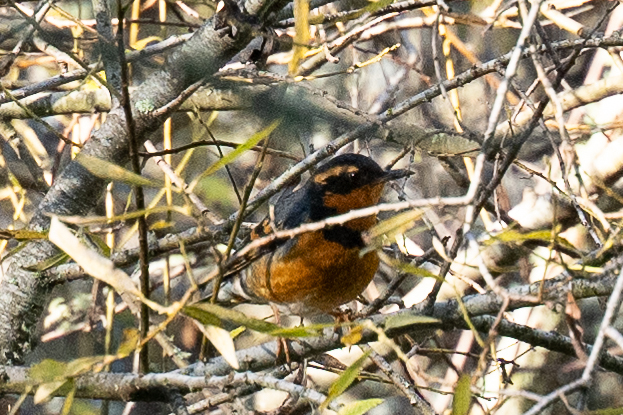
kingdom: Animalia
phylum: Chordata
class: Aves
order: Passeriformes
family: Turdidae
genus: Ixoreus
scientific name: Ixoreus naevius
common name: Varied thrush
